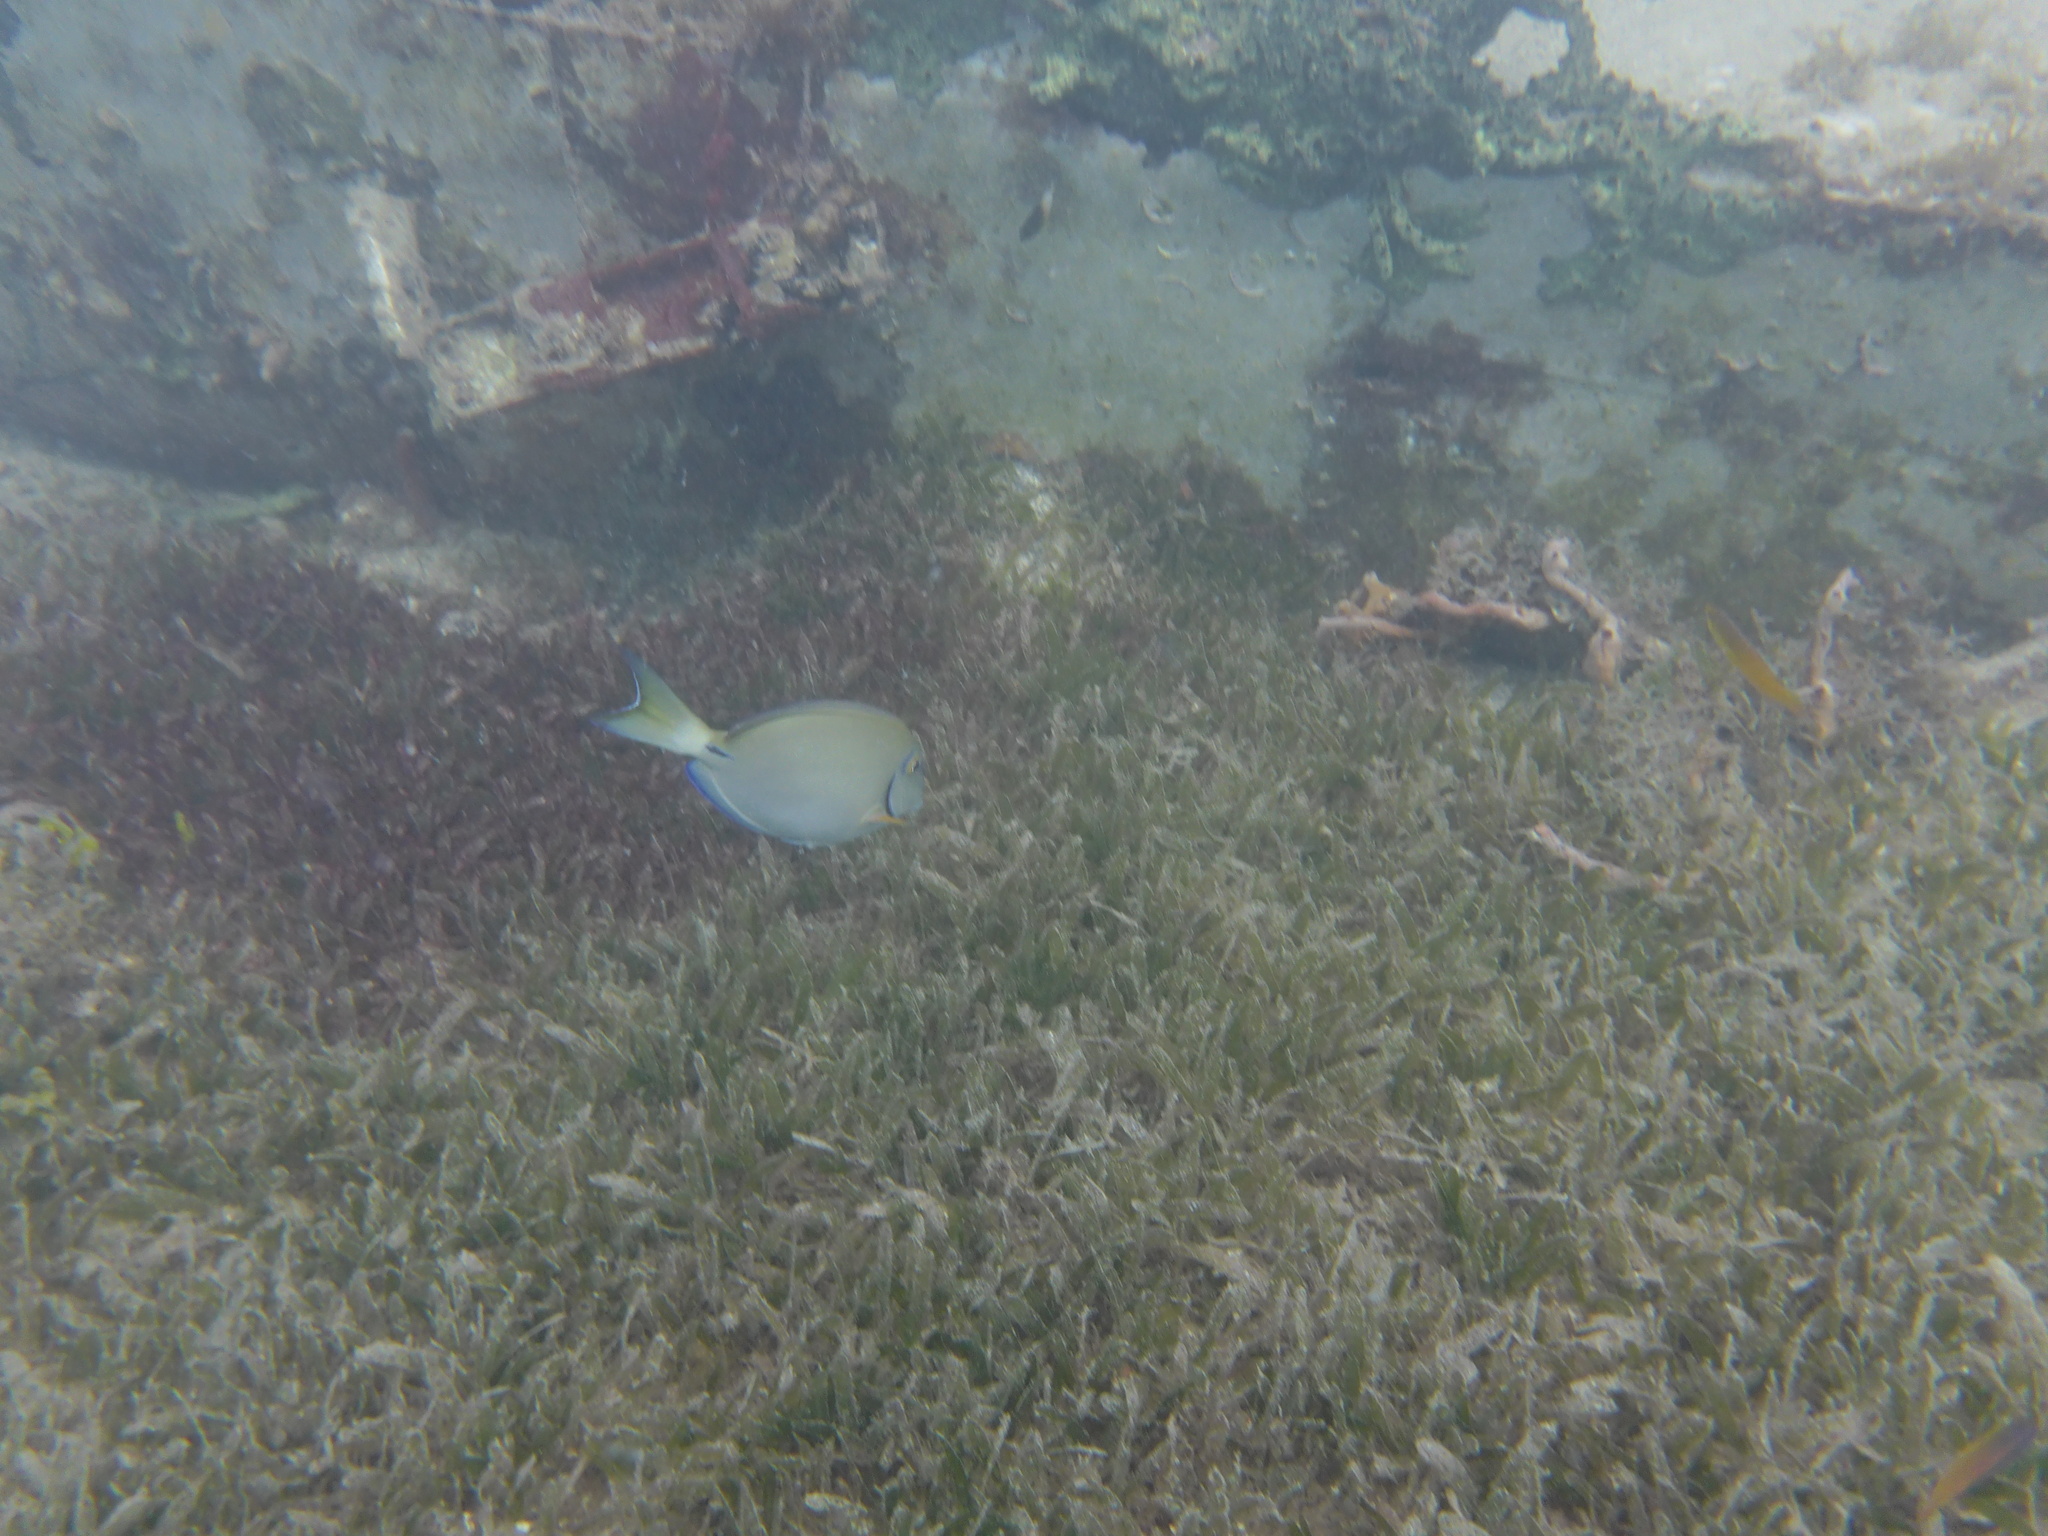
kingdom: Animalia
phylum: Chordata
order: Perciformes
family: Acanthuridae
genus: Acanthurus
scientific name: Acanthurus bahianus
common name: Ocean surgeon
